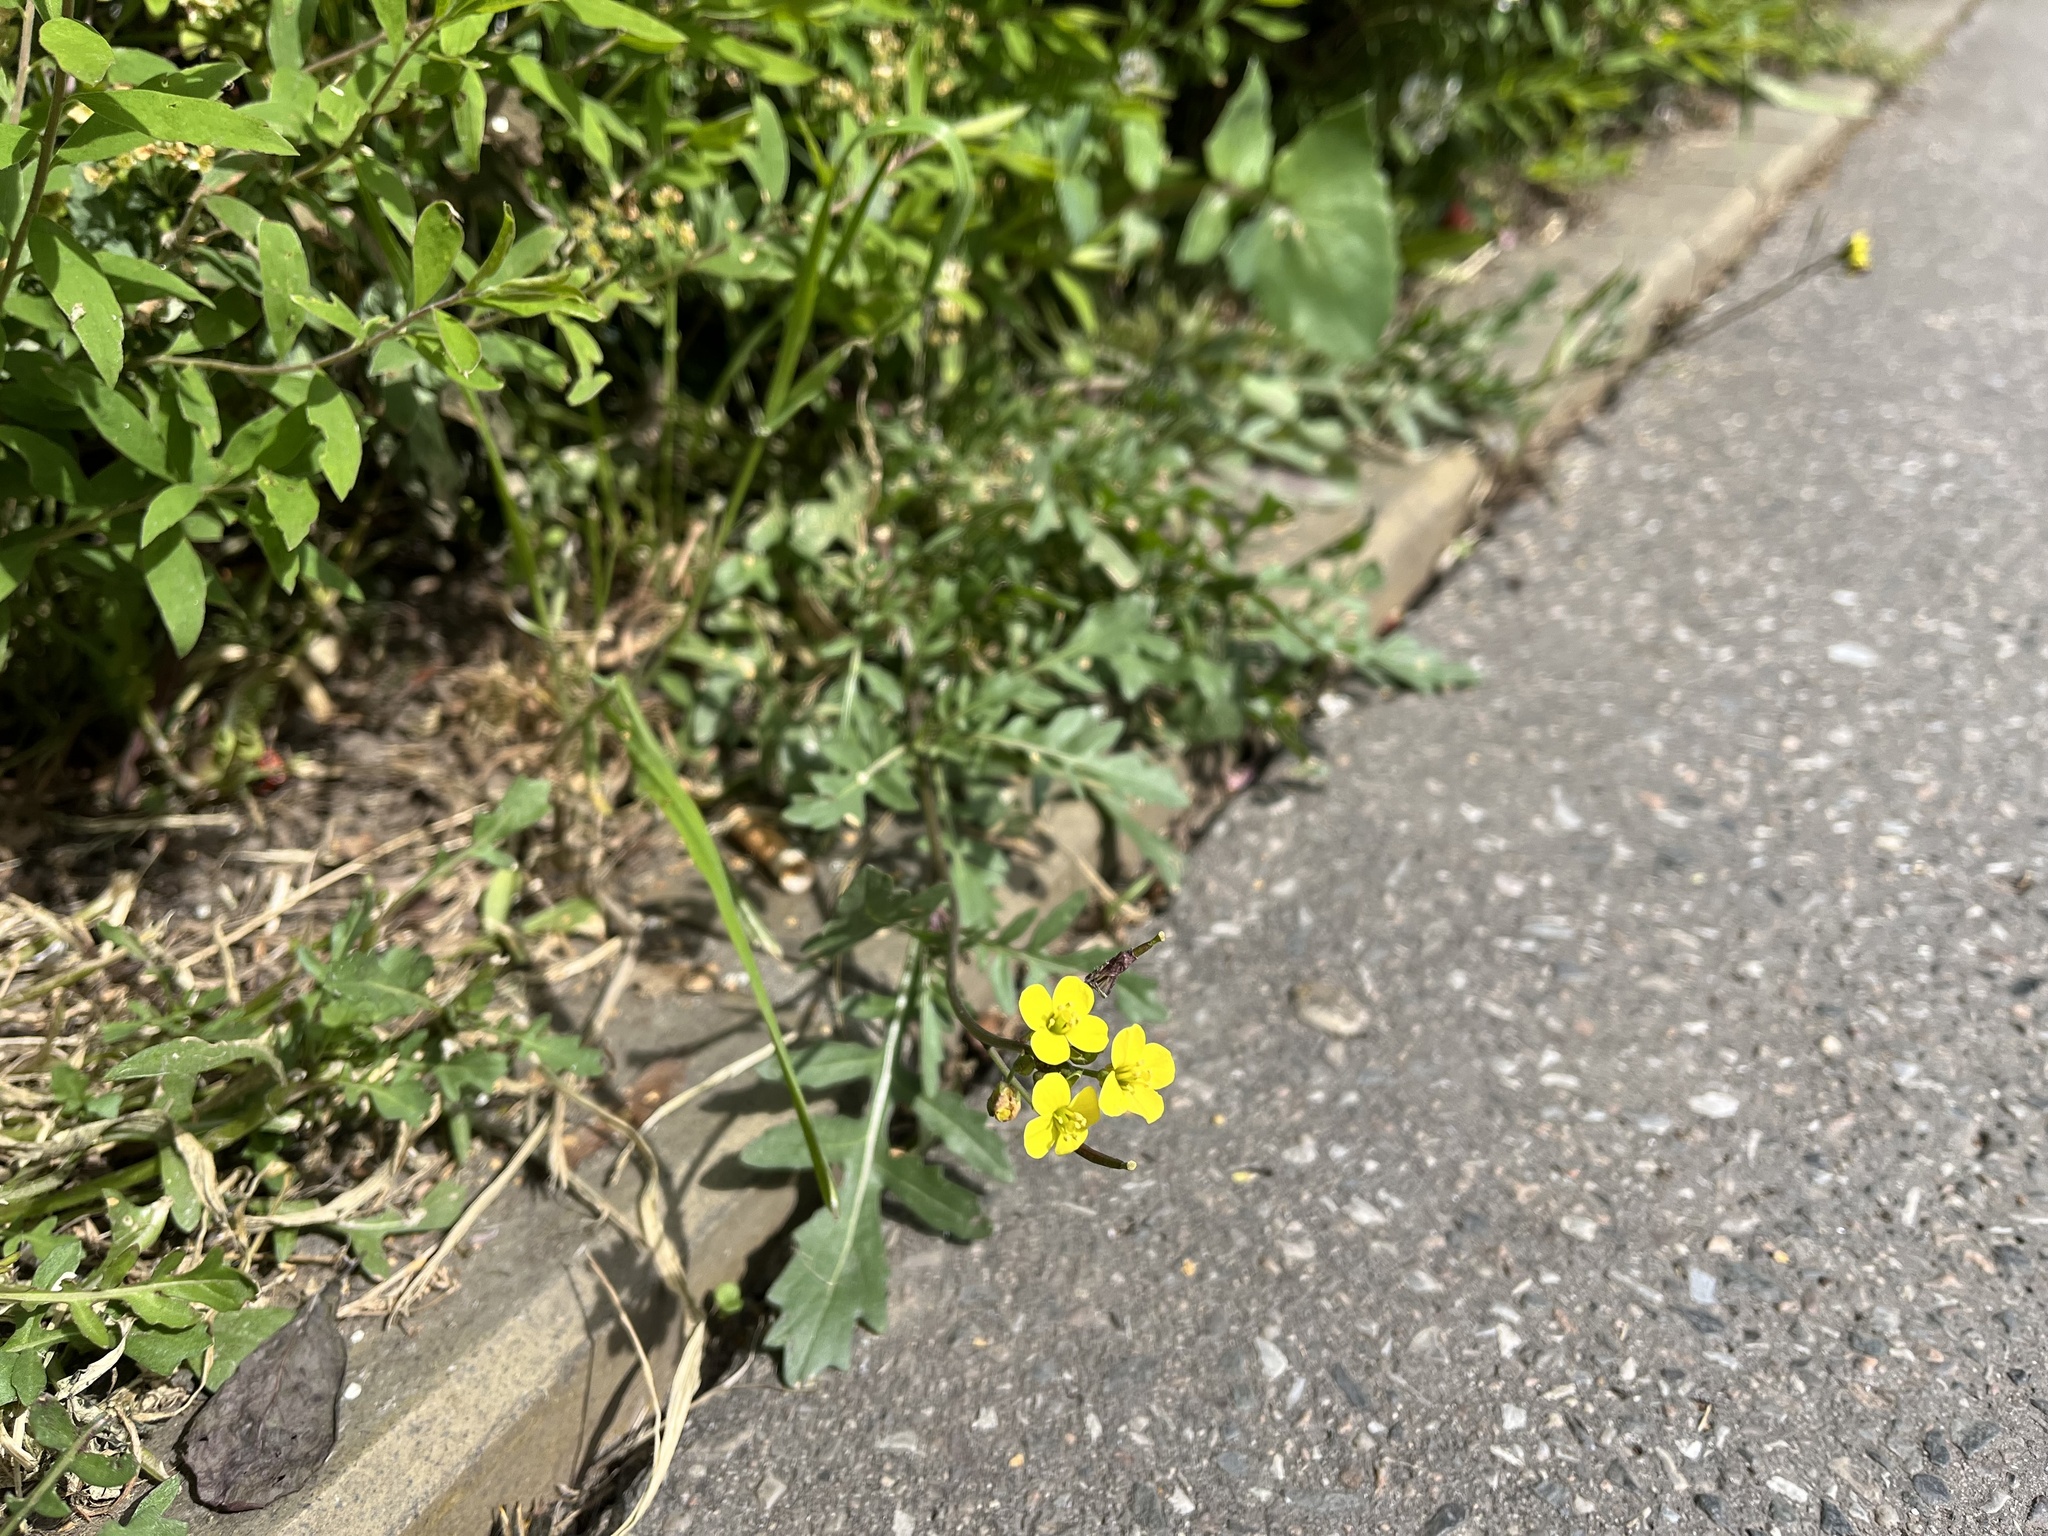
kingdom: Plantae
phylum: Tracheophyta
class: Magnoliopsida
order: Brassicales
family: Brassicaceae
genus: Diplotaxis
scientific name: Diplotaxis tenuifolia
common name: Perennial wall-rocket
